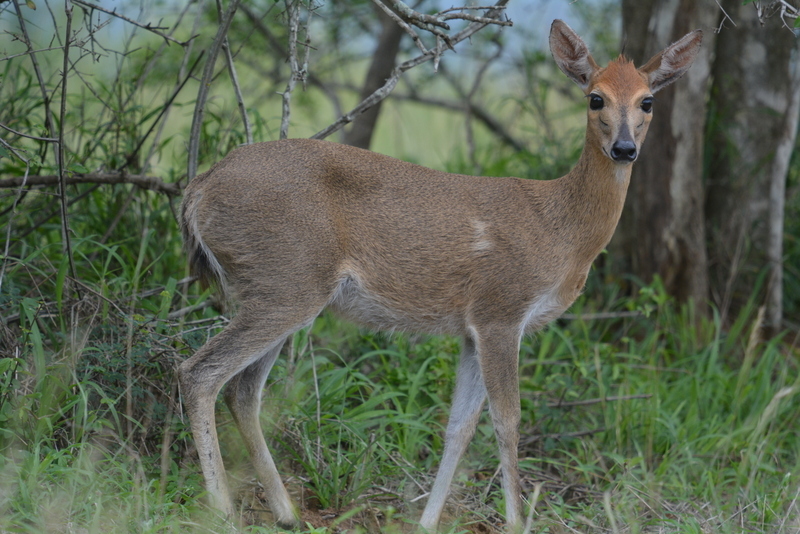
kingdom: Animalia
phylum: Chordata
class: Mammalia
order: Artiodactyla
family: Bovidae
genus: Sylvicapra
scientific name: Sylvicapra grimmia
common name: Bush duiker
